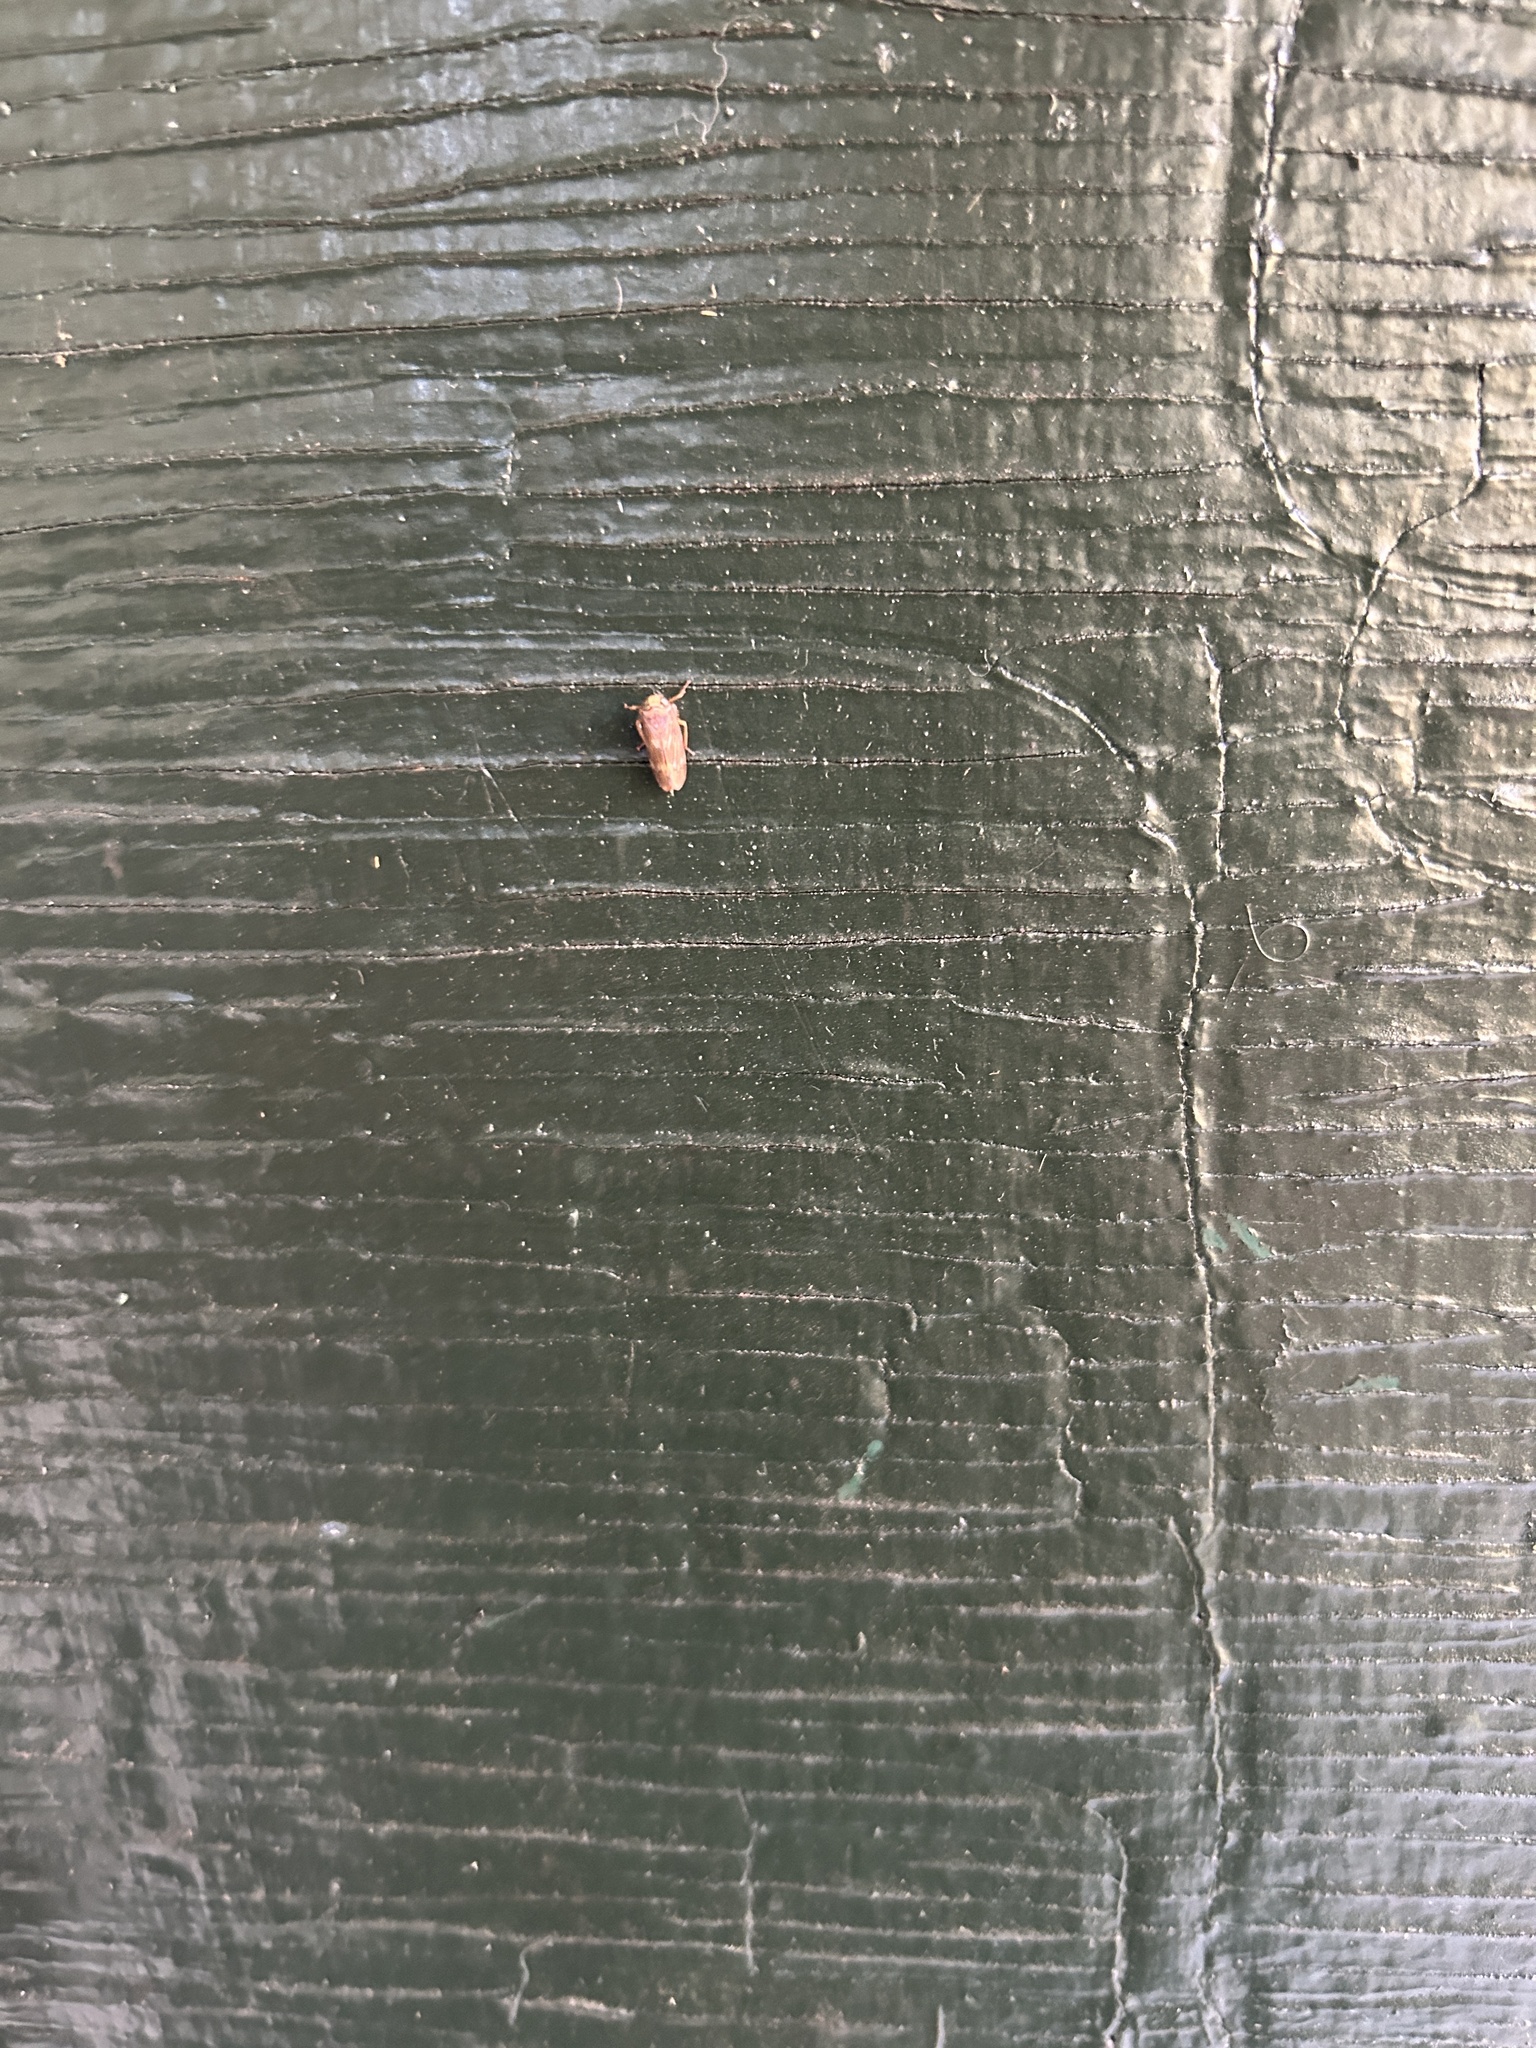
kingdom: Animalia
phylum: Arthropoda
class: Insecta
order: Hemiptera
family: Cicadellidae
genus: Jikradia
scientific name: Jikradia olitoria
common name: Coppery leafhopper
